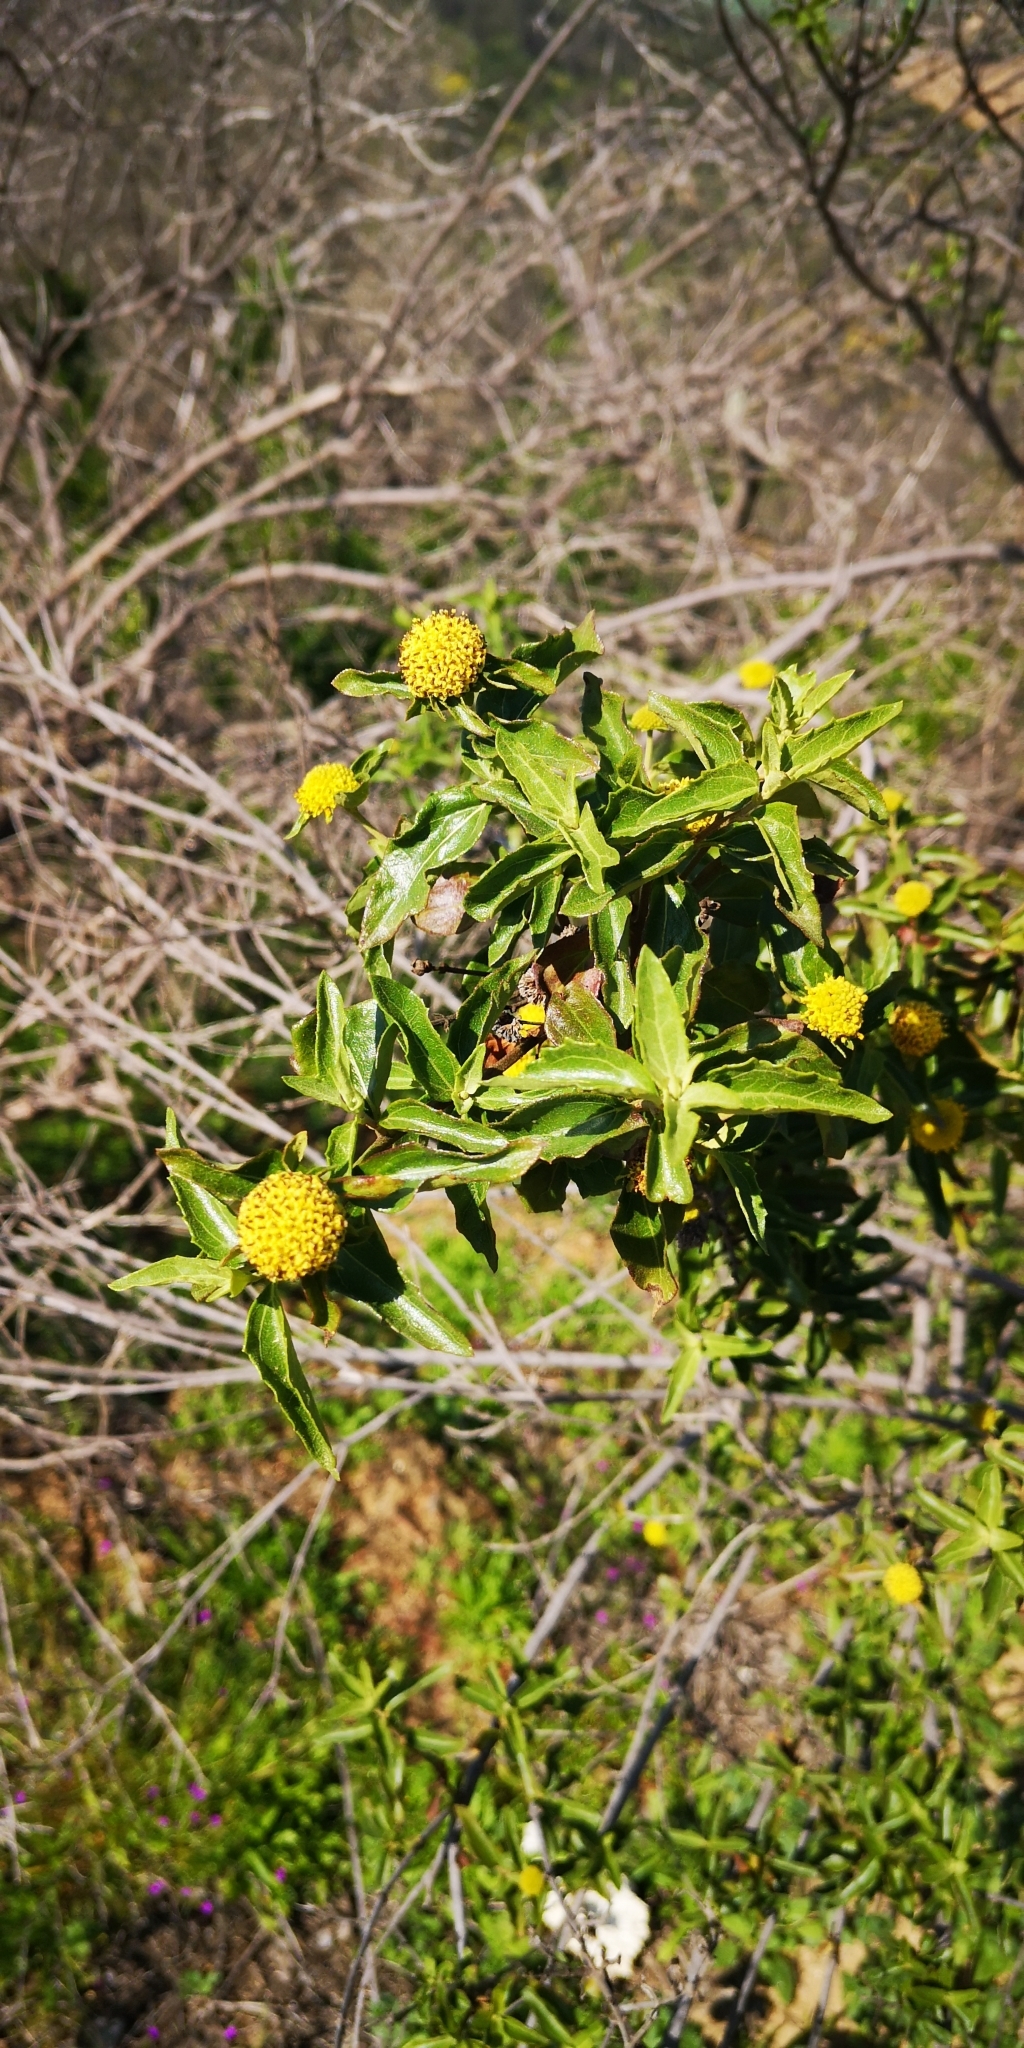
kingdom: Plantae
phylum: Tracheophyta
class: Magnoliopsida
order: Asterales
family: Asteraceae
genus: Podanthus
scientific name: Podanthus mitiqui
